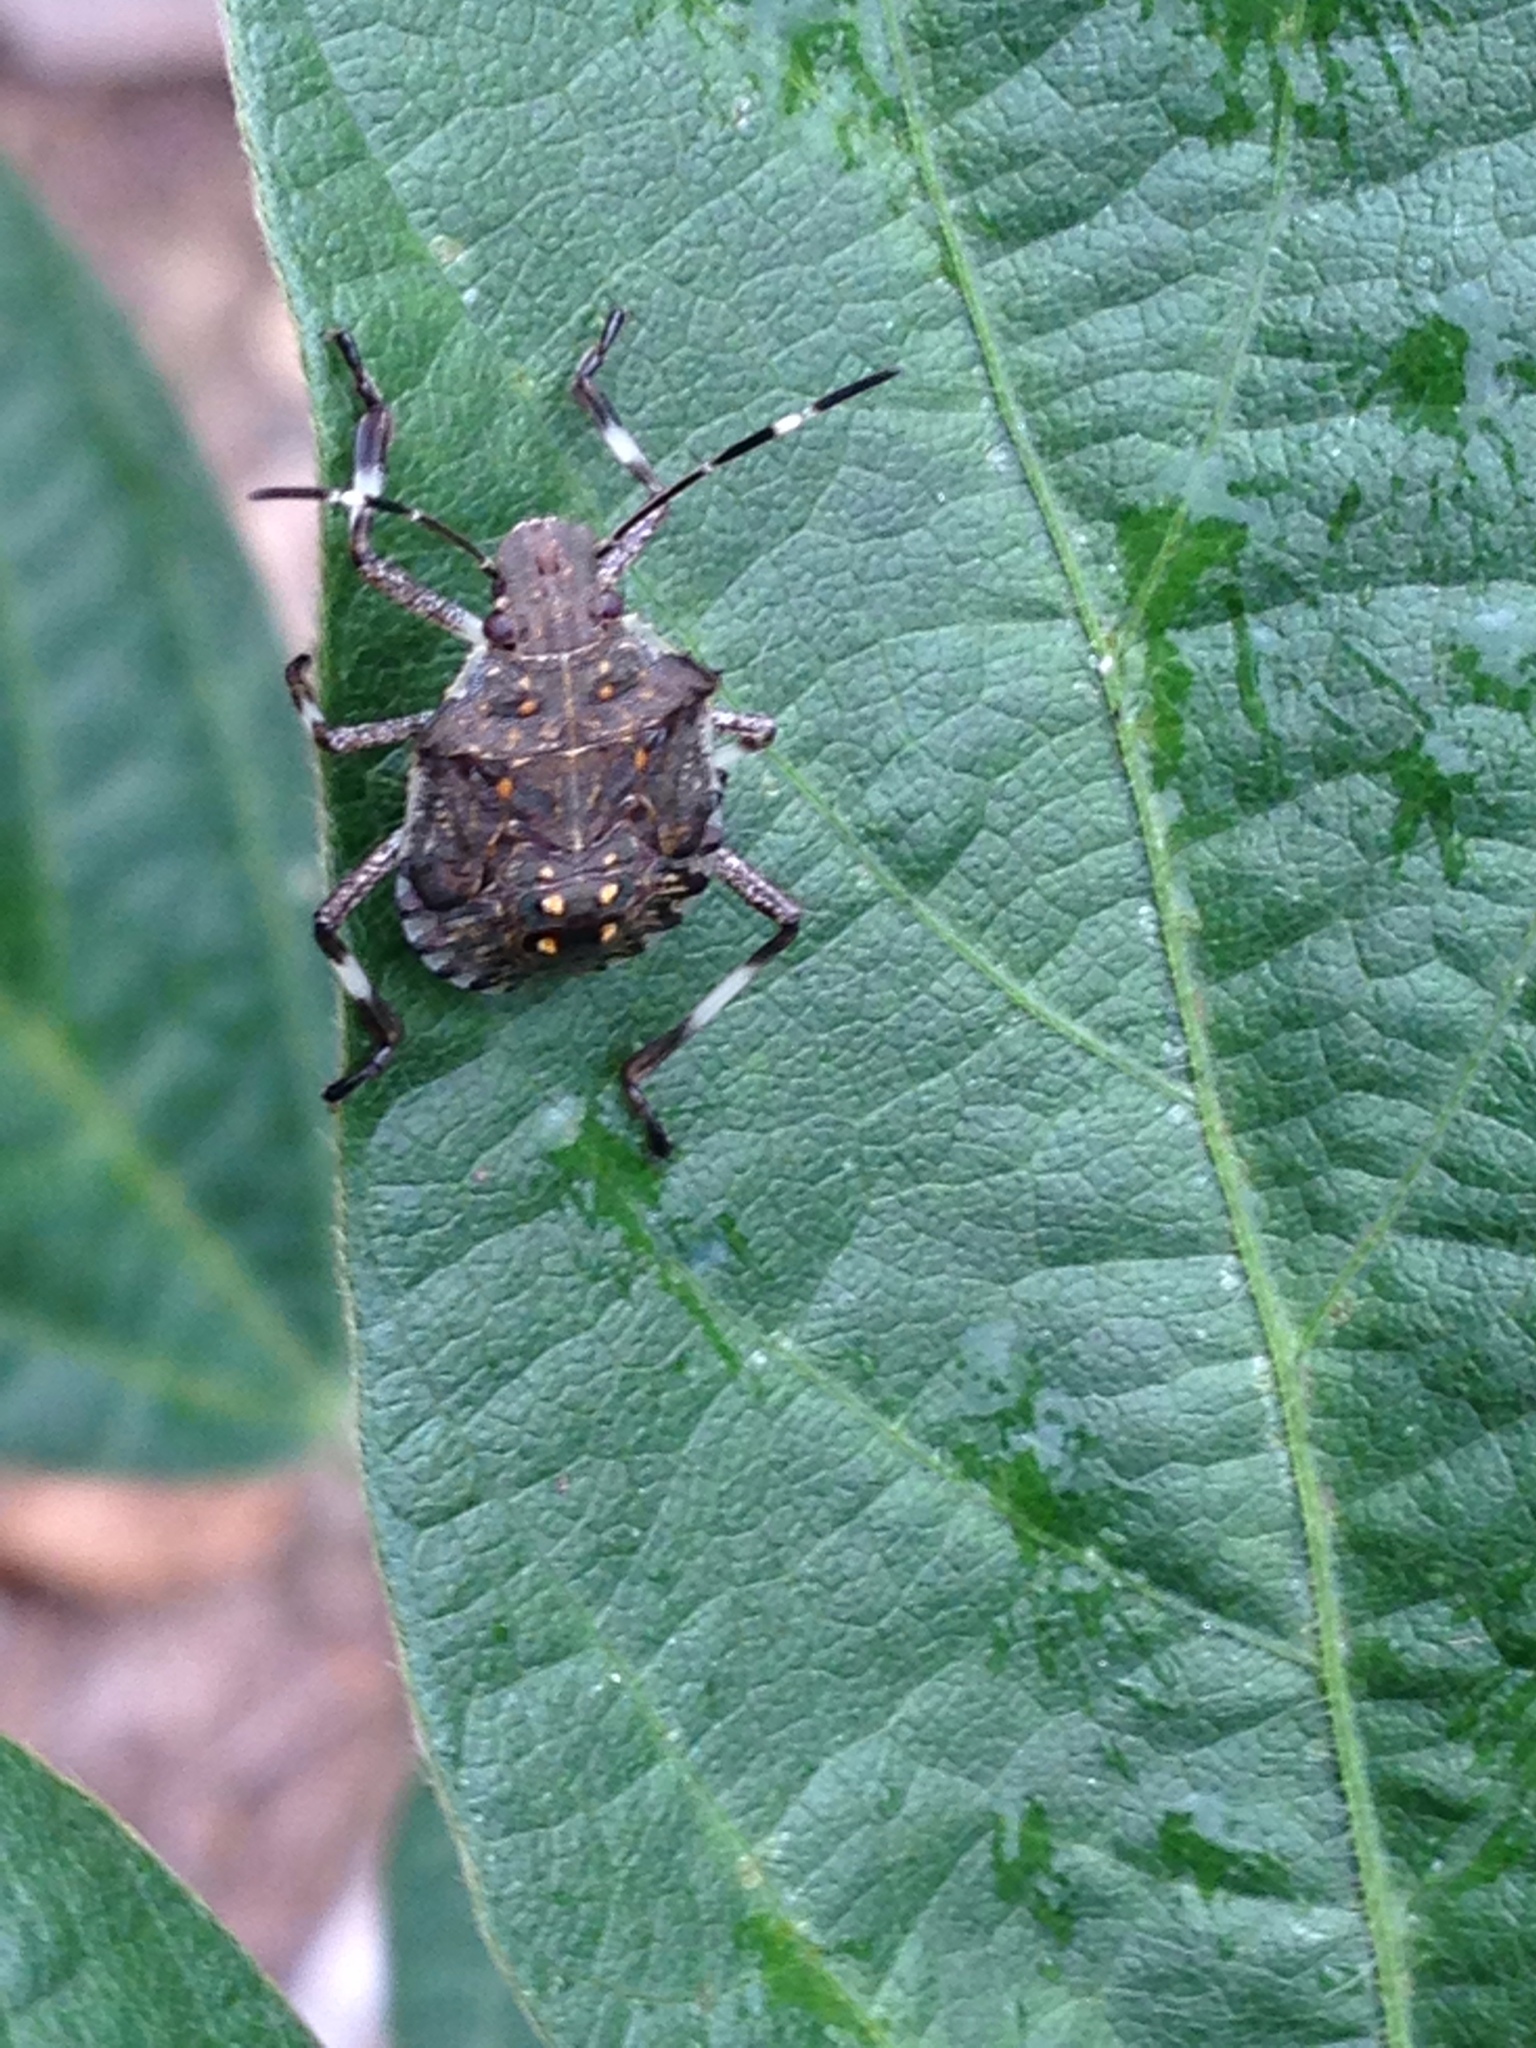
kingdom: Animalia
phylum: Arthropoda
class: Insecta
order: Hemiptera
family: Pentatomidae
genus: Halyomorpha
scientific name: Halyomorpha halys
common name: Brown marmorated stink bug
